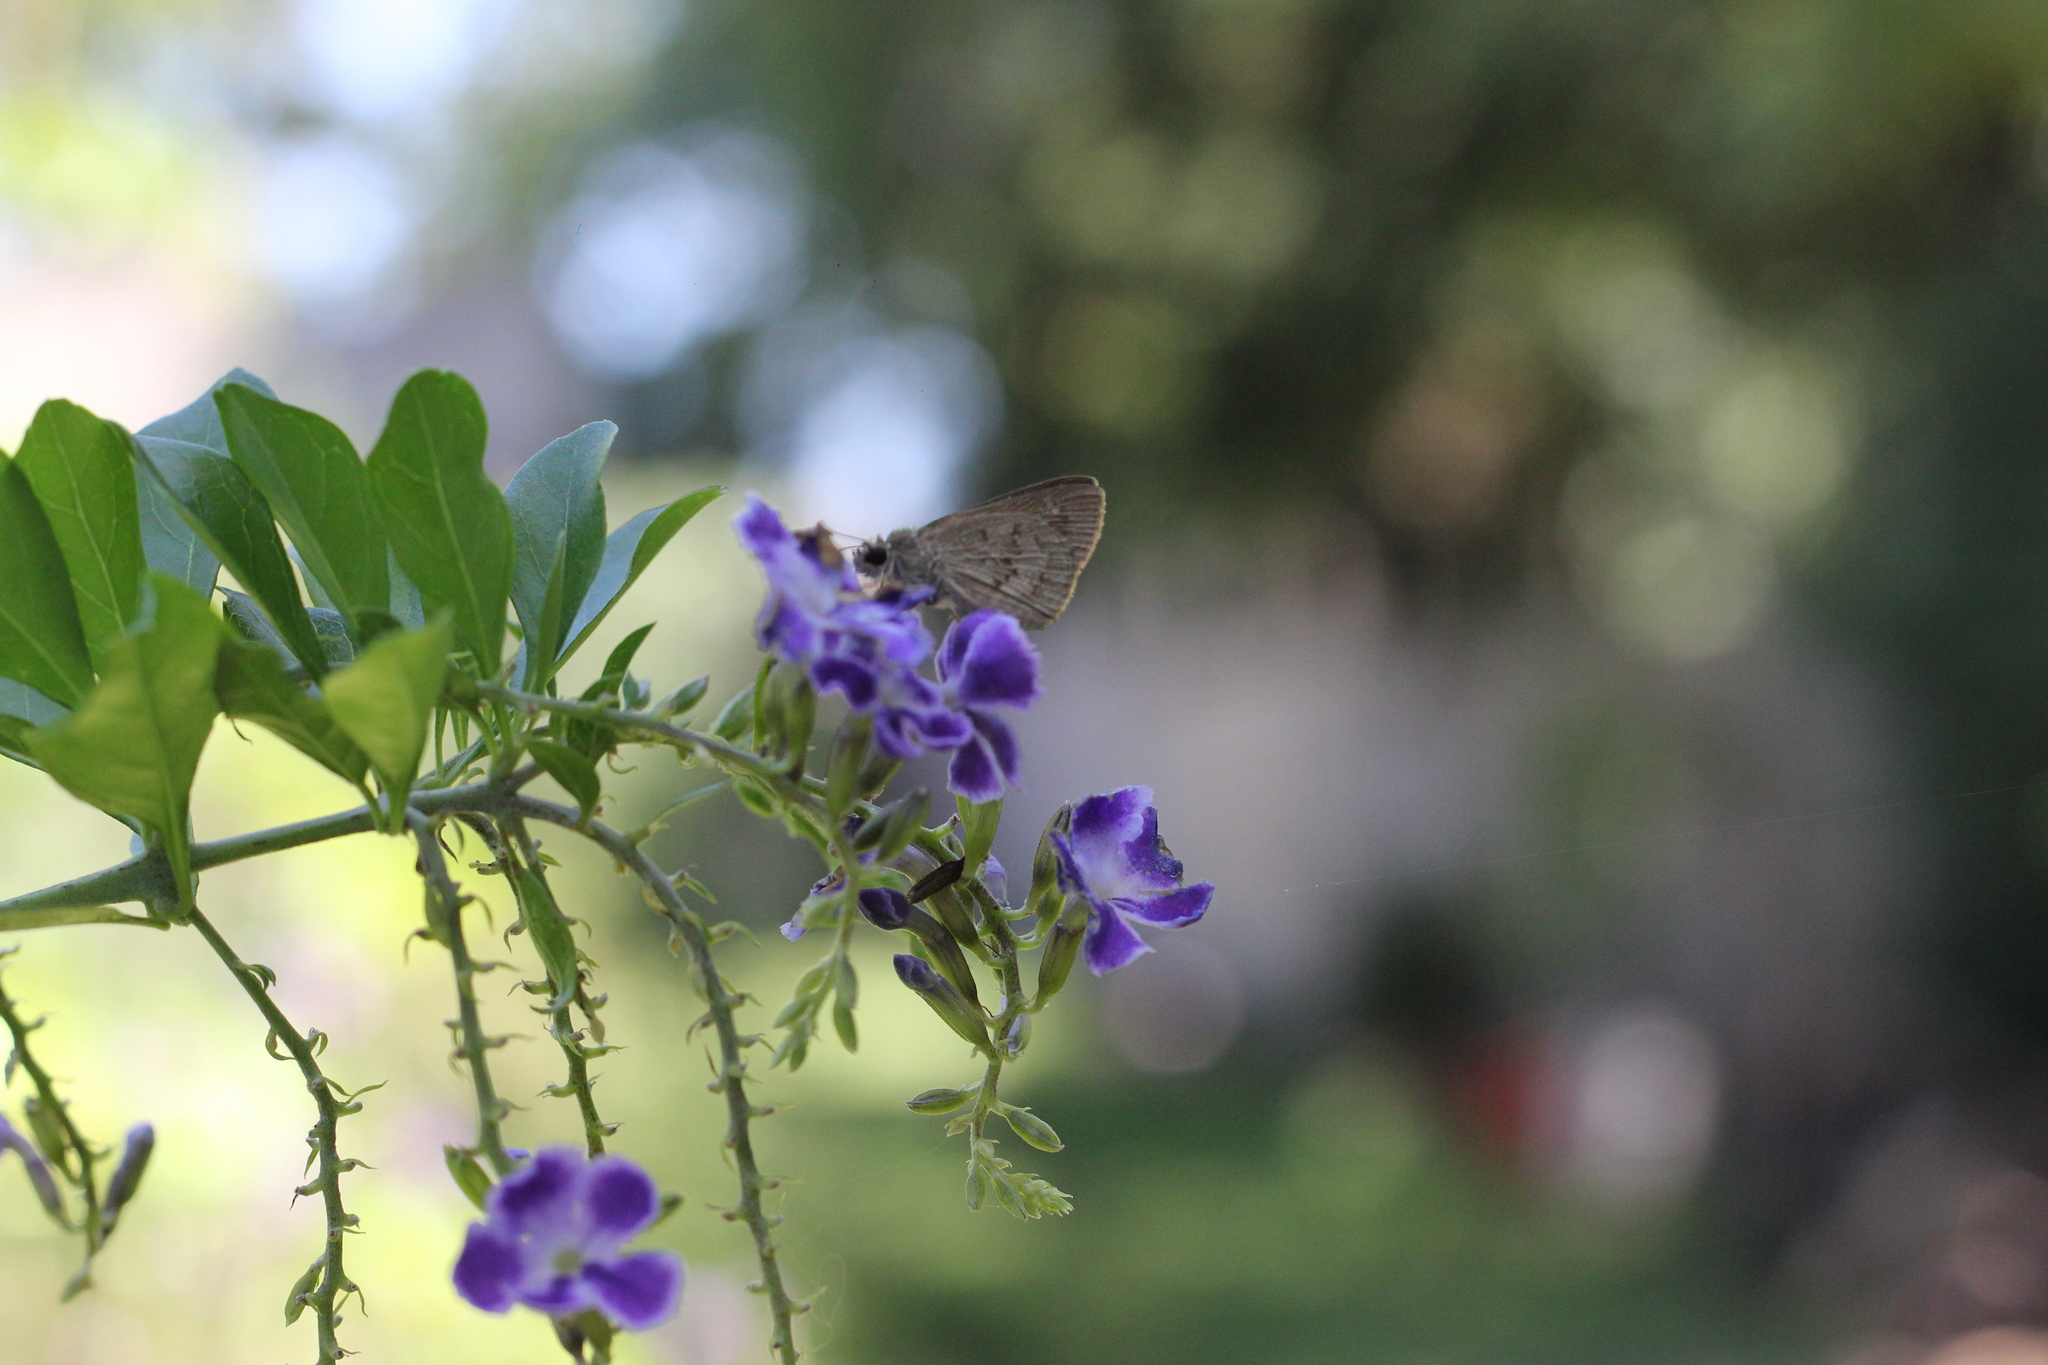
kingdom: Animalia
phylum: Arthropoda
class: Insecta
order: Lepidoptera
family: Hesperiidae
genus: Cymaenes
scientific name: Cymaenes gisca
